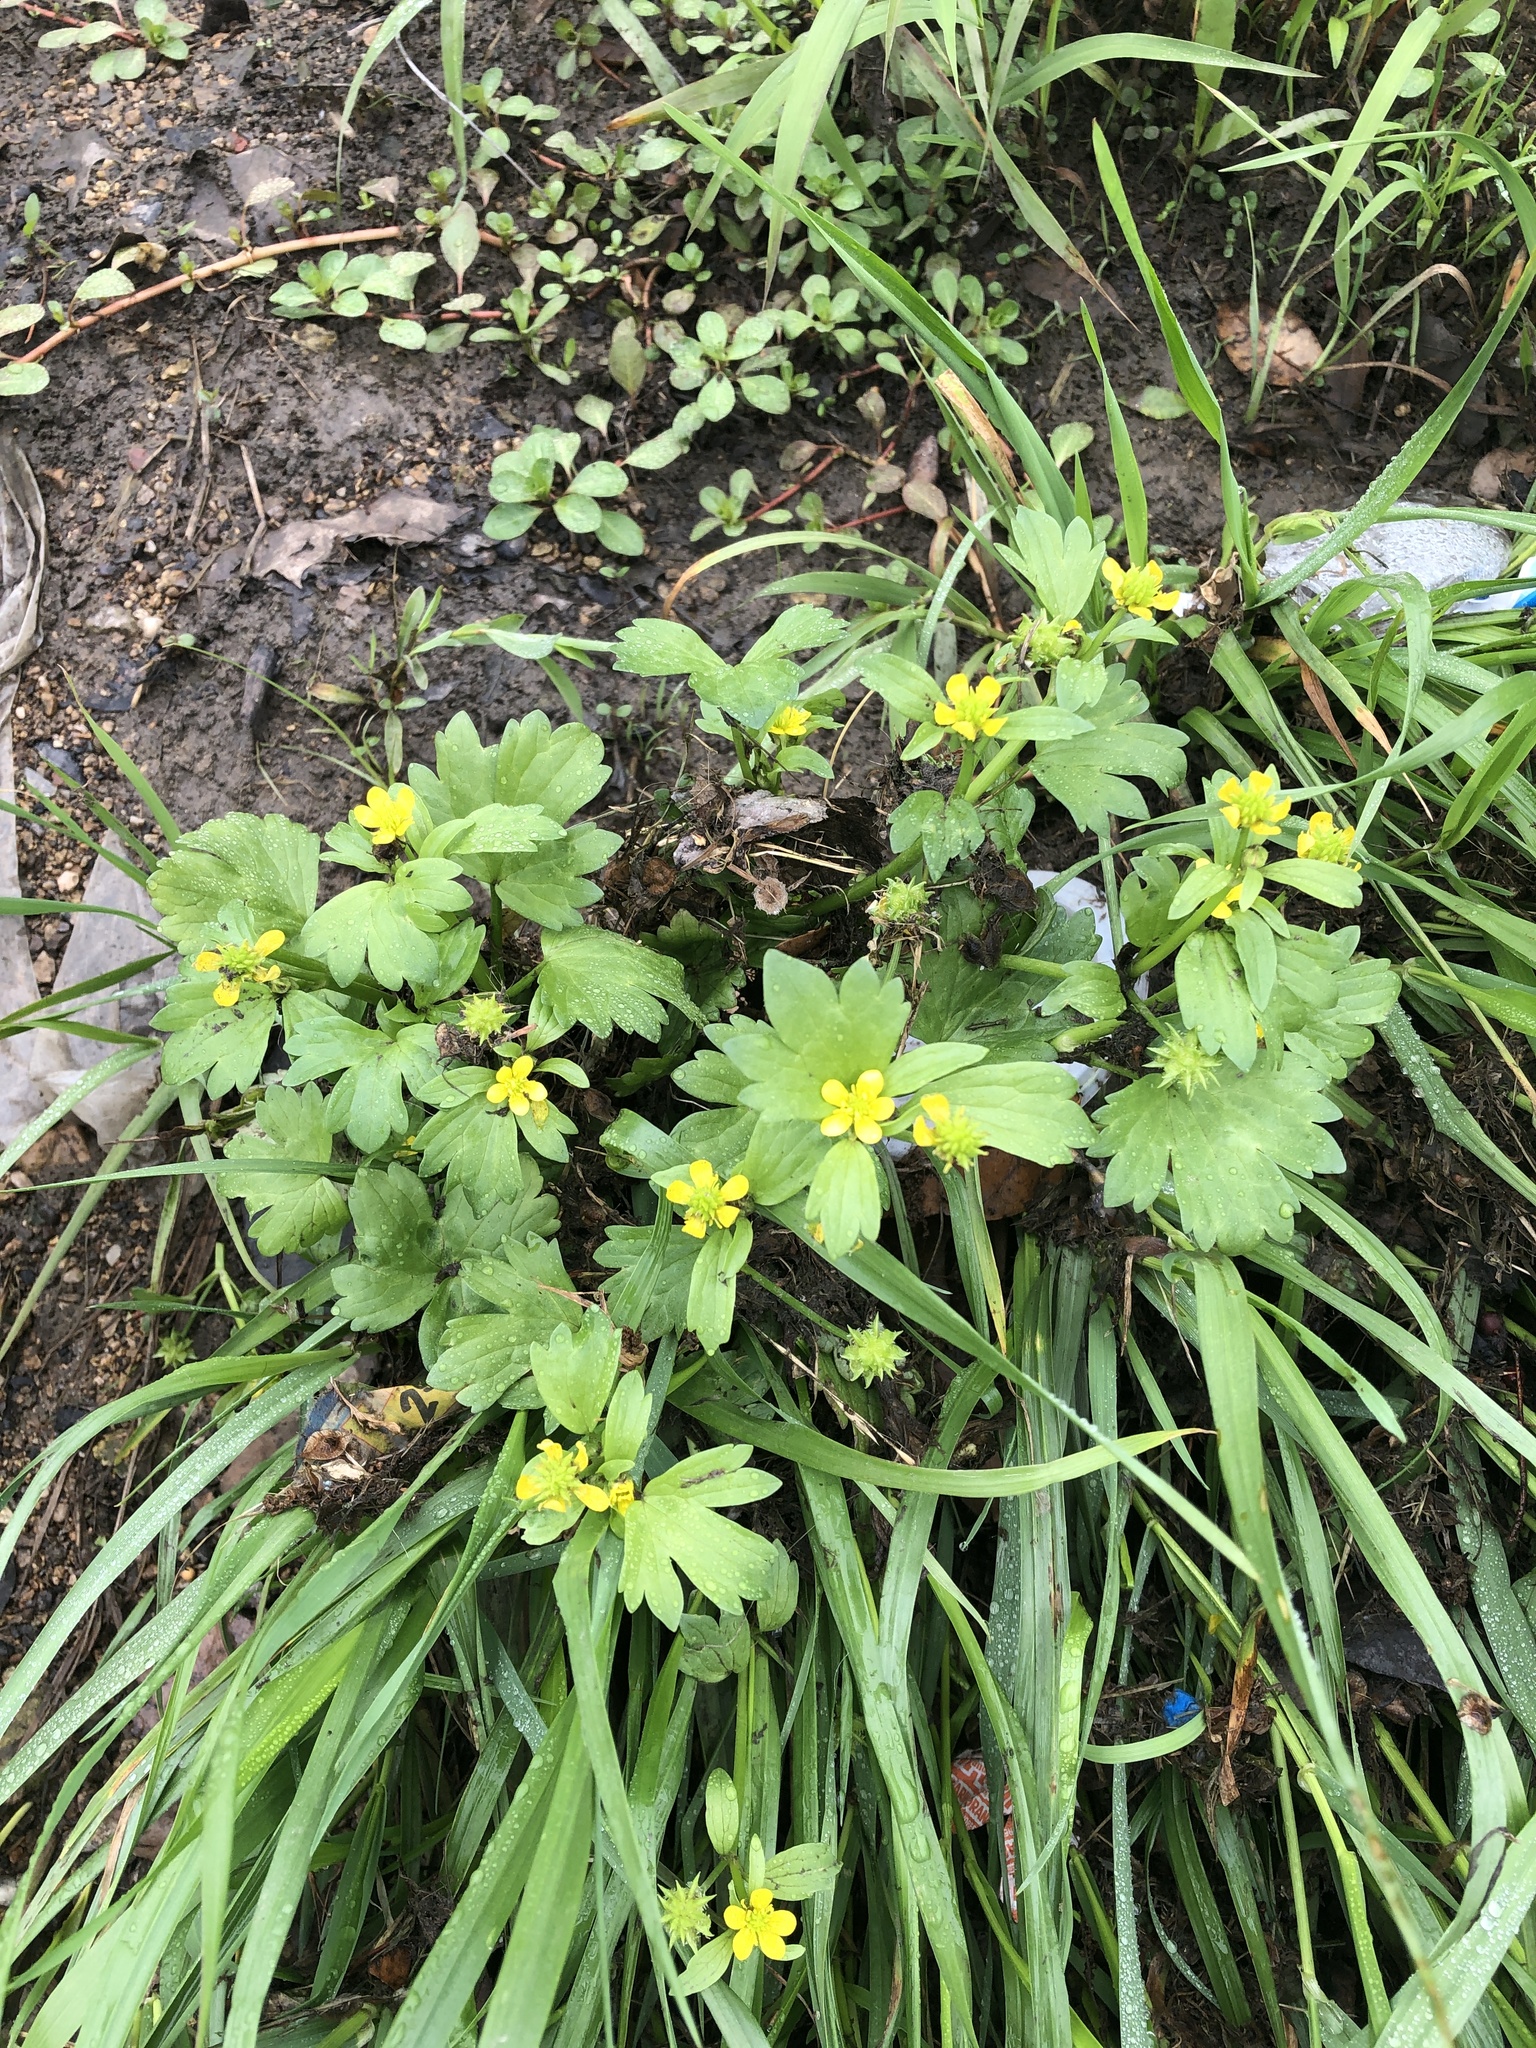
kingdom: Plantae
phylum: Tracheophyta
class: Magnoliopsida
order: Ranunculales
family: Ranunculaceae
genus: Ranunculus
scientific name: Ranunculus muricatus
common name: Rough-fruited buttercup
